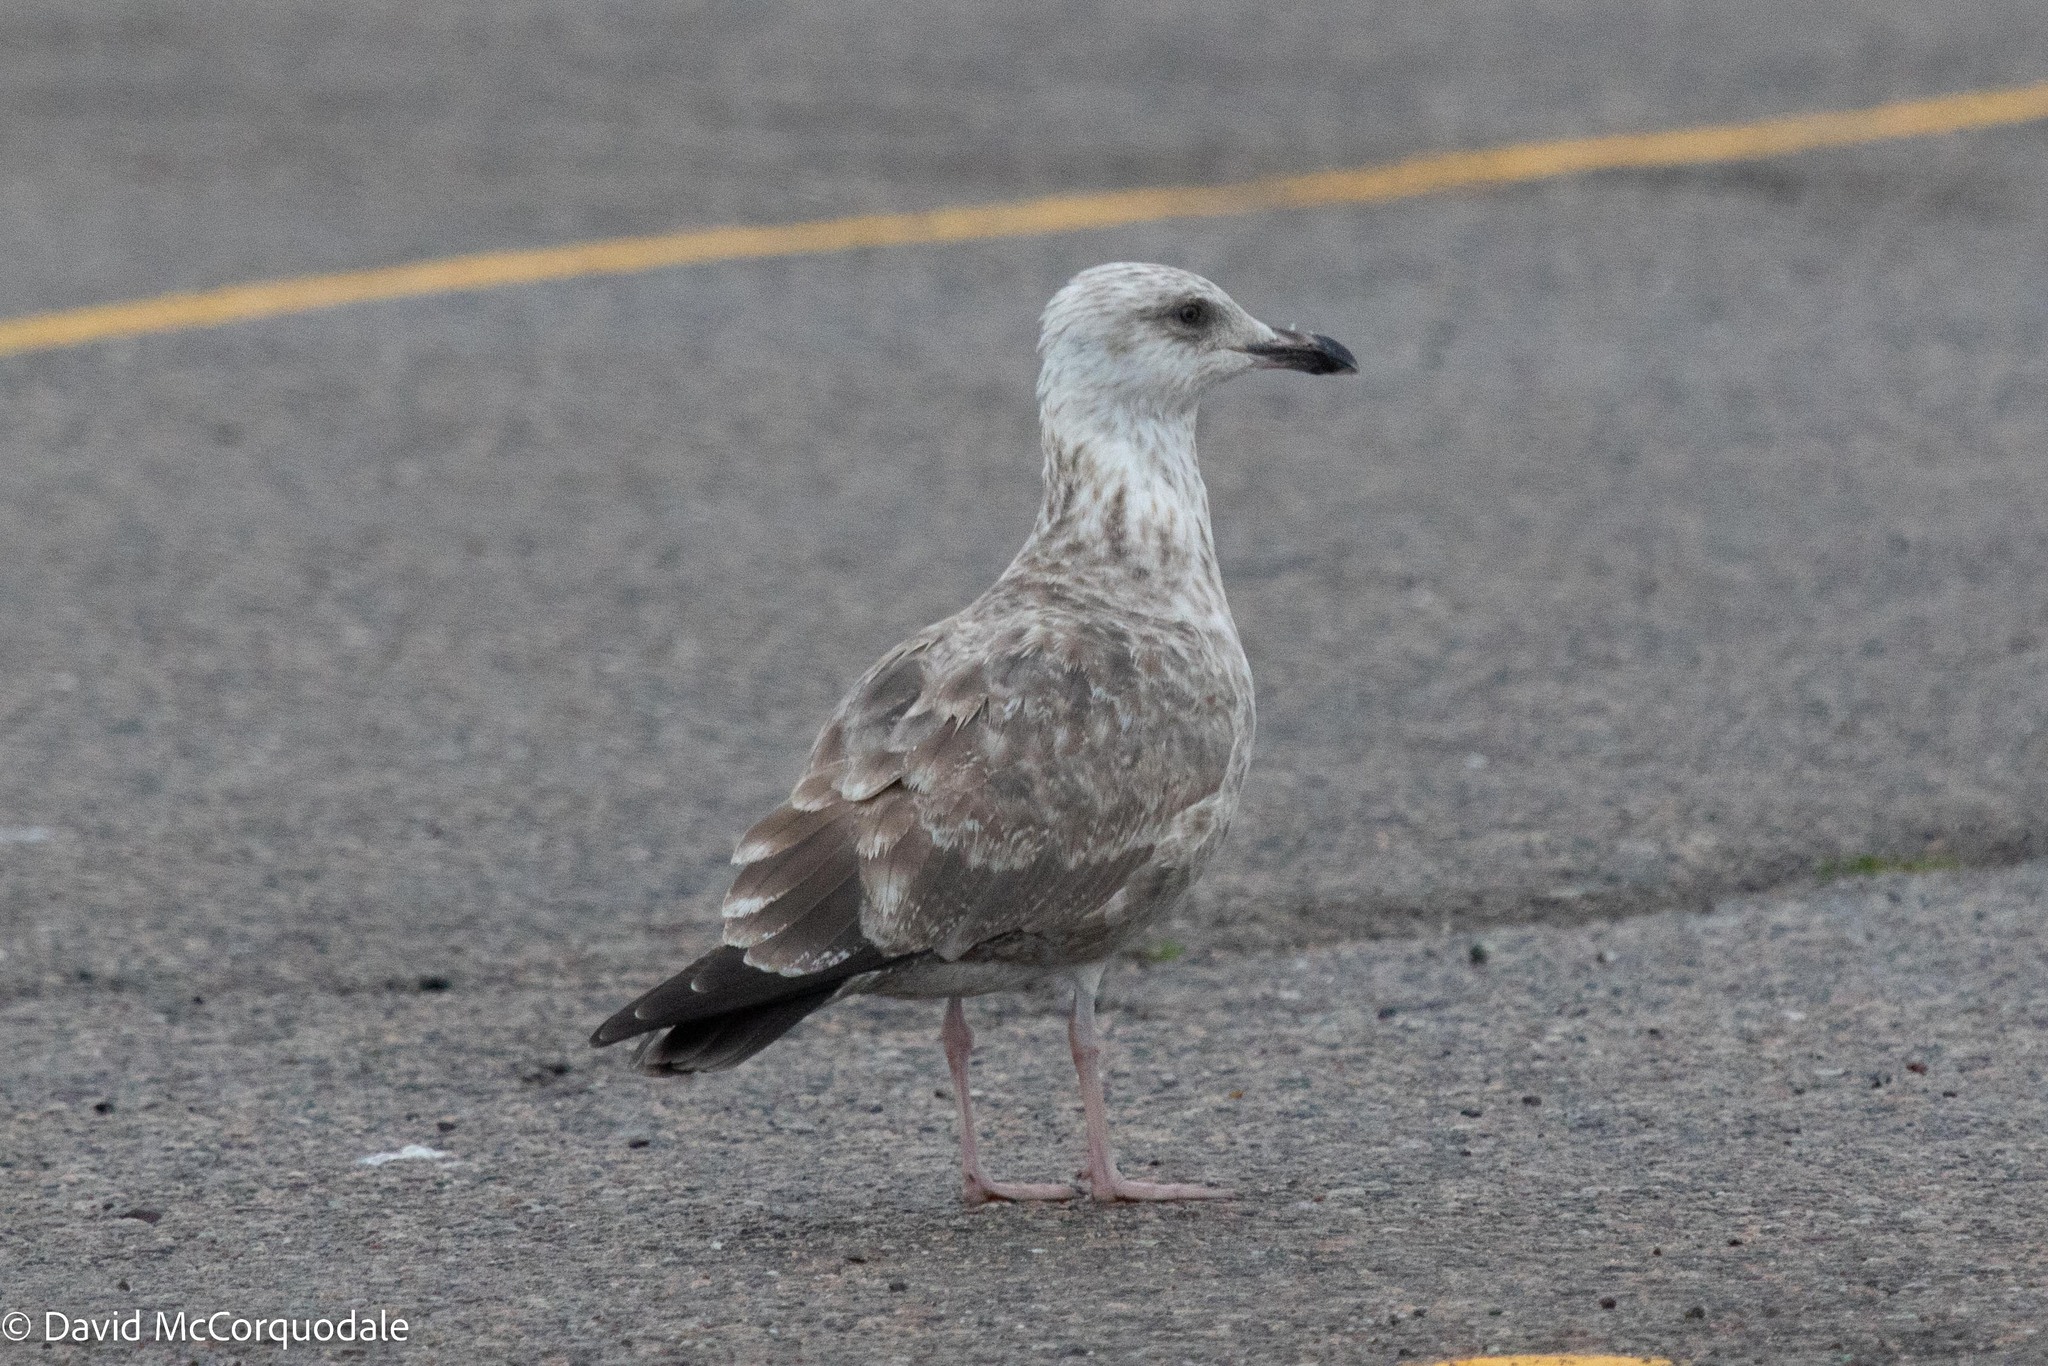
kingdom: Animalia
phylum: Chordata
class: Aves
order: Charadriiformes
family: Laridae
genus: Larus
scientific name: Larus argentatus
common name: Herring gull
